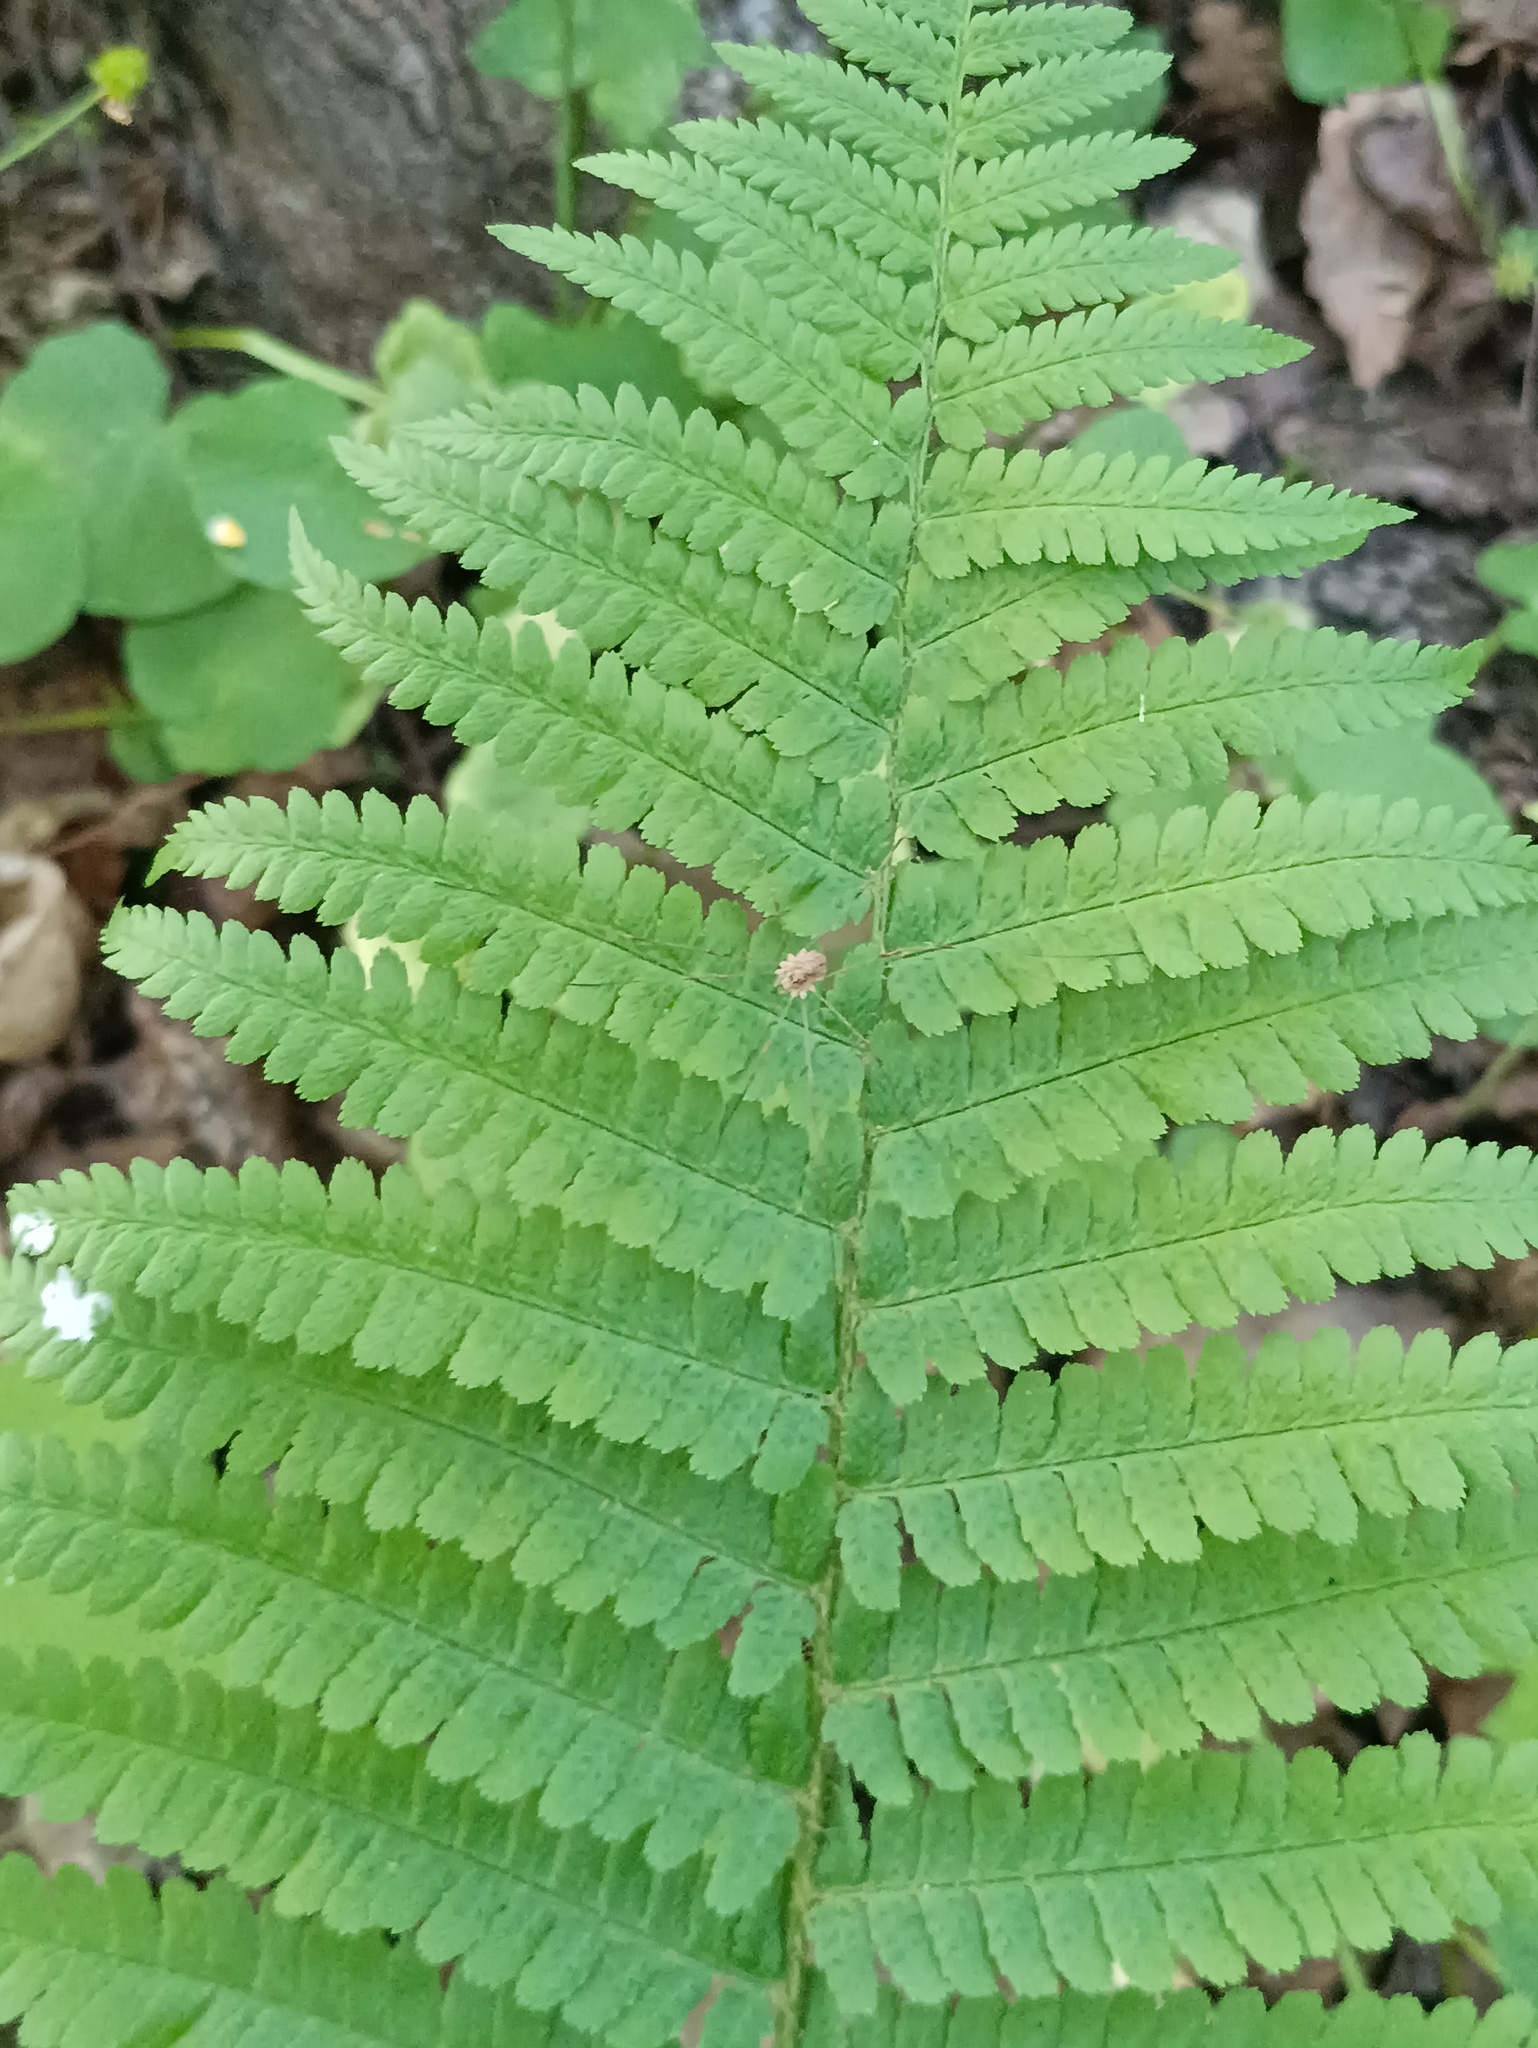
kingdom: Plantae
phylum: Tracheophyta
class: Polypodiopsida
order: Polypodiales
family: Dryopteridaceae
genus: Dryopteris
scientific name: Dryopteris filix-mas
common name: Male fern
